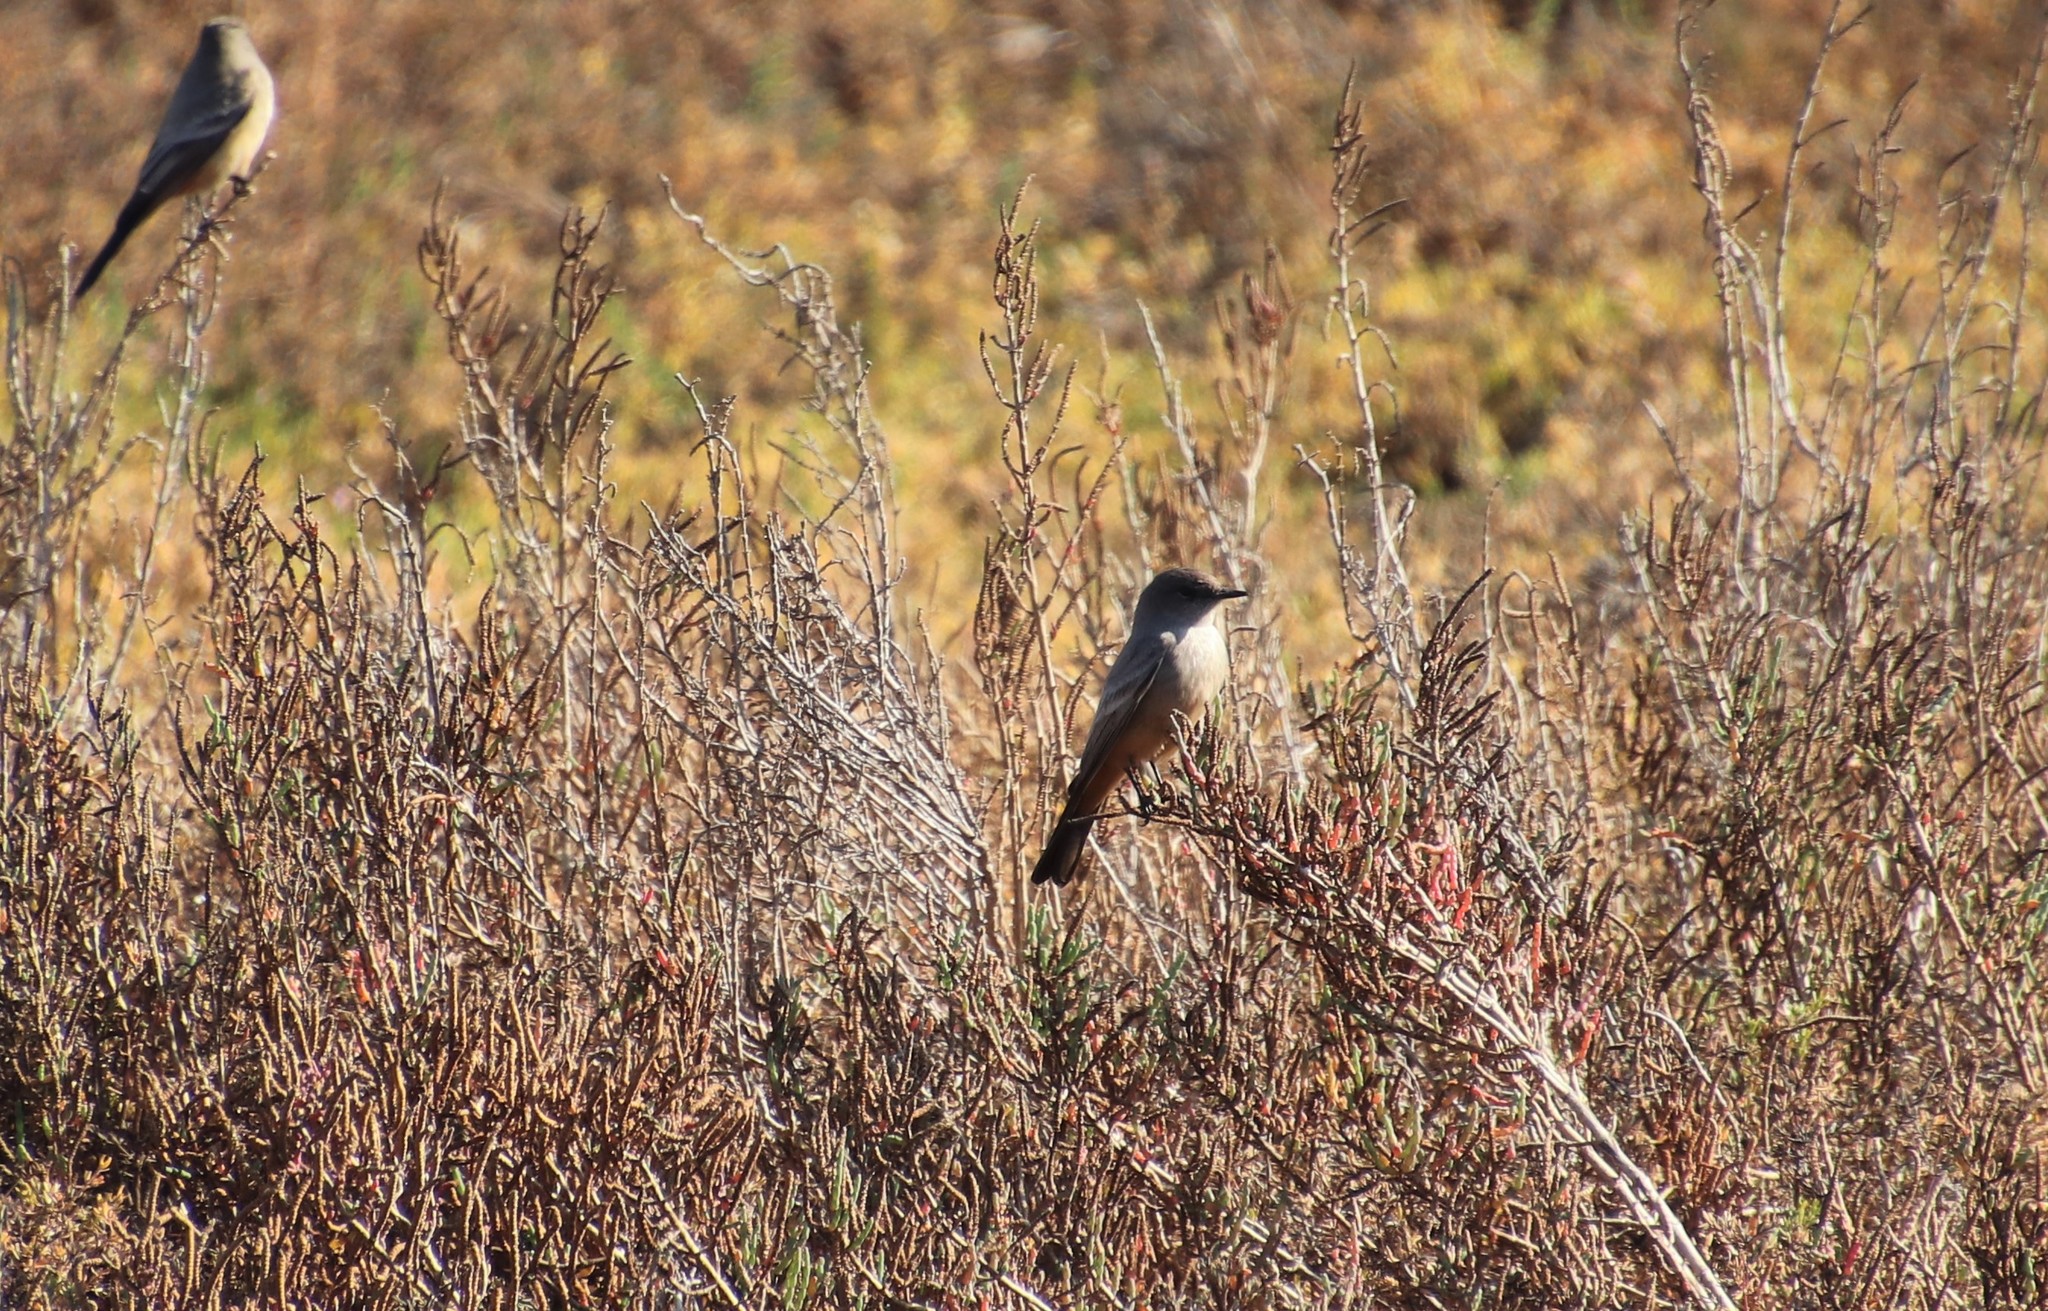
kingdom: Animalia
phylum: Chordata
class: Aves
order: Passeriformes
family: Tyrannidae
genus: Sayornis
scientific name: Sayornis saya
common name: Say's phoebe
